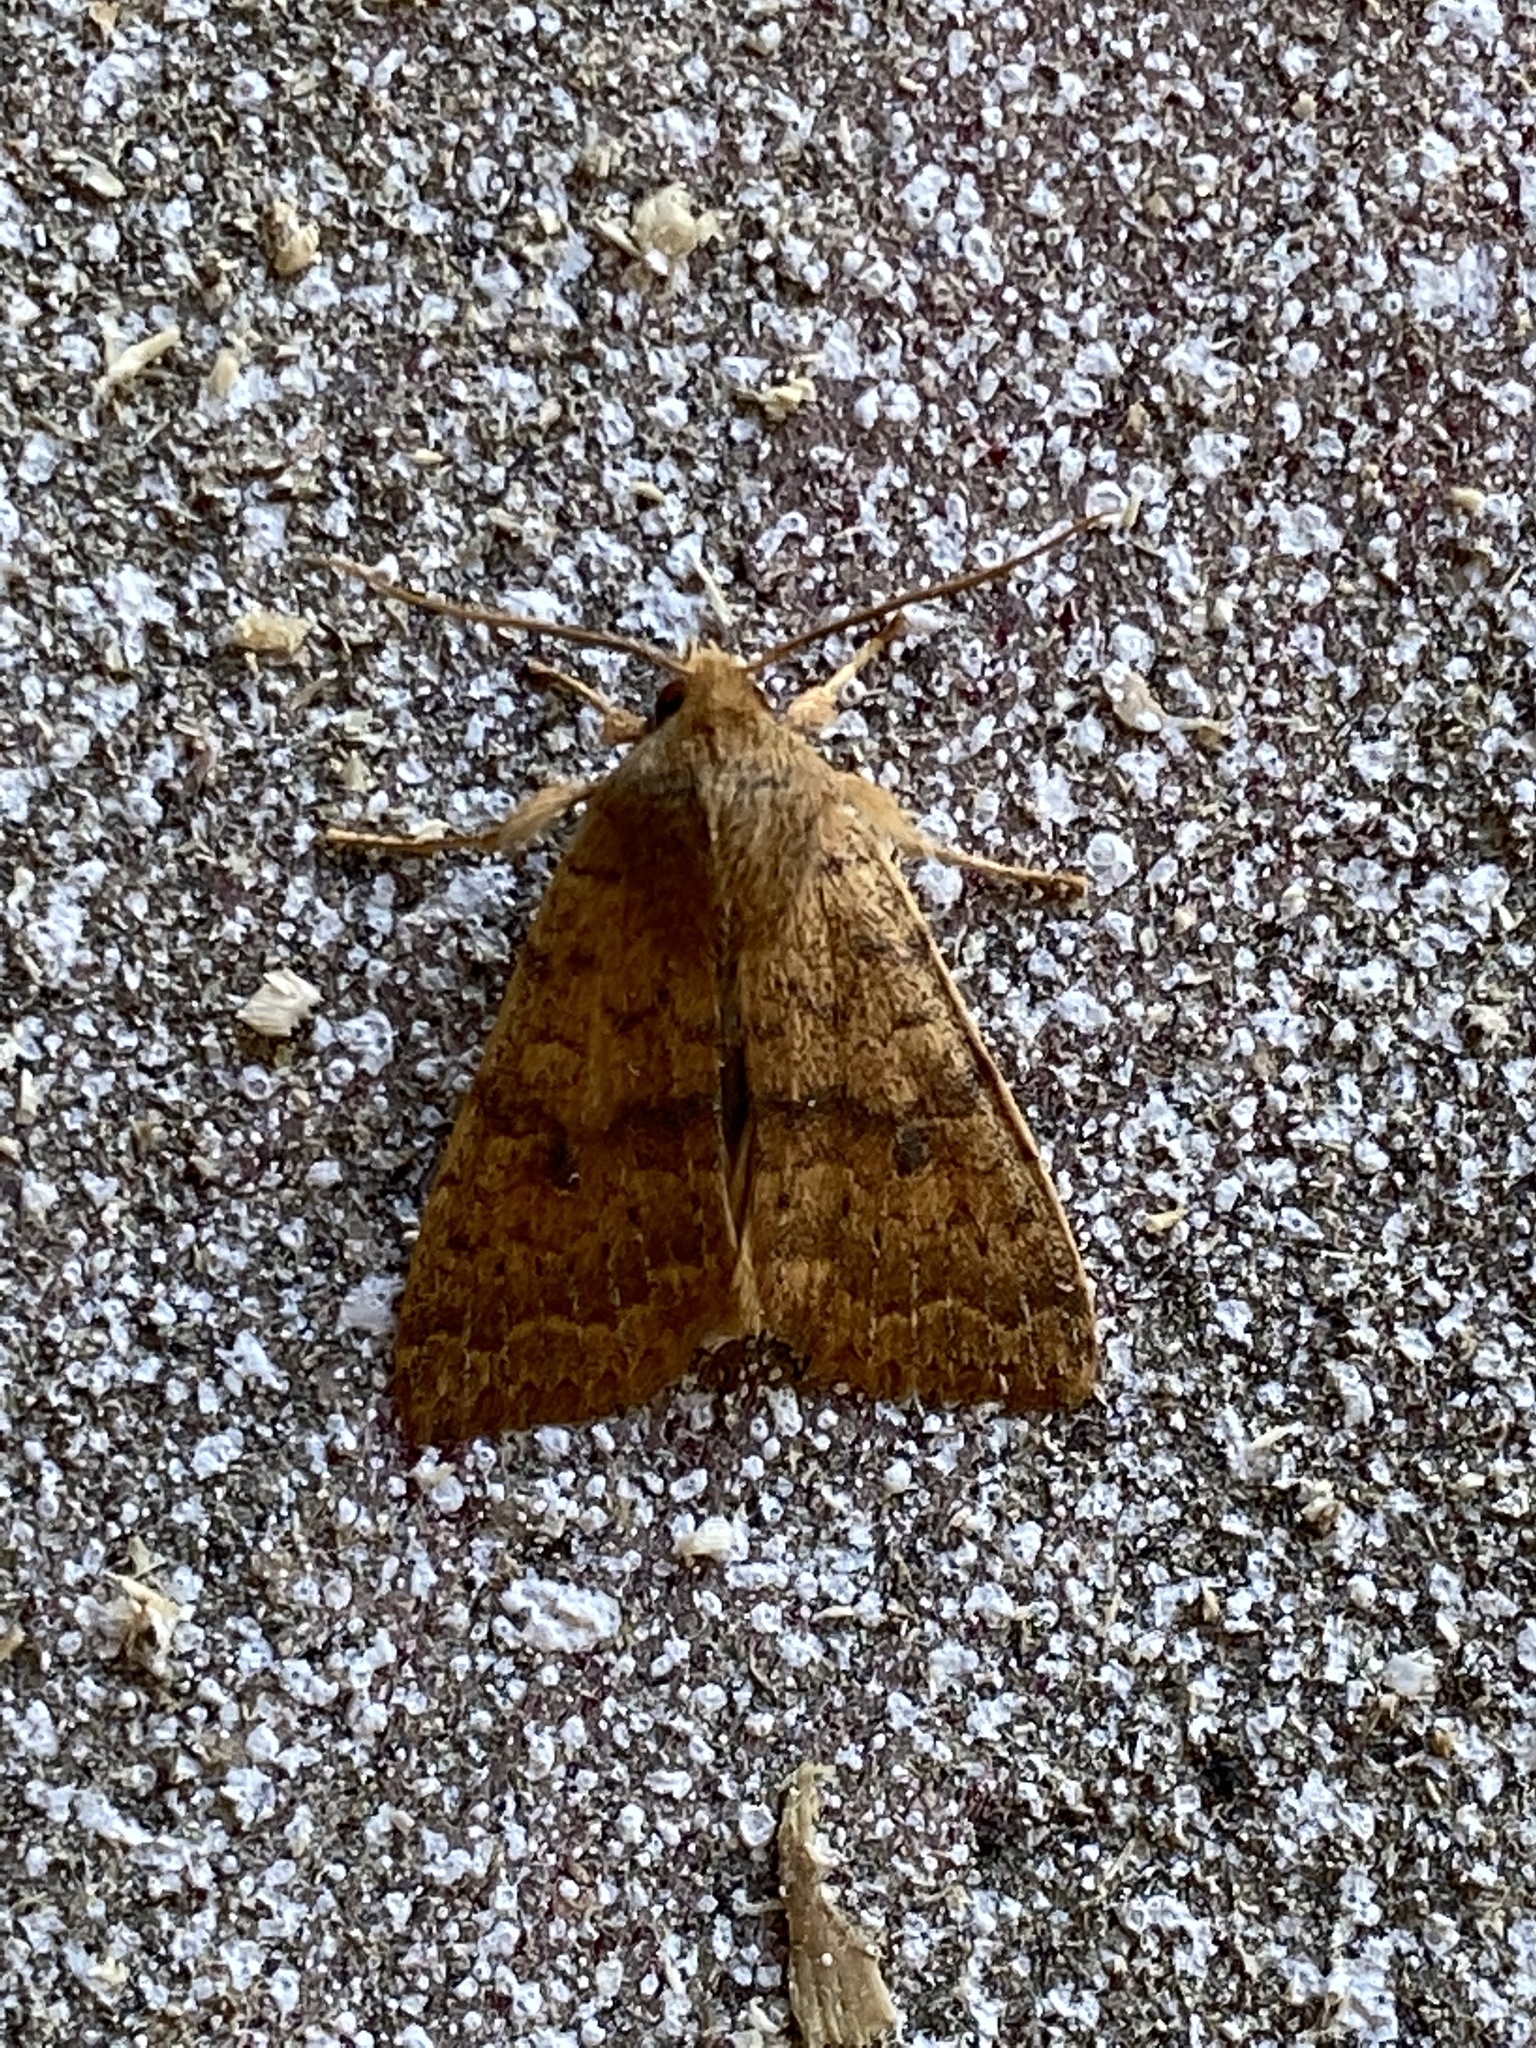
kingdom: Animalia
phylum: Arthropoda
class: Insecta
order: Lepidoptera
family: Noctuidae
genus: Agrochola
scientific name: Agrochola bicolorago
